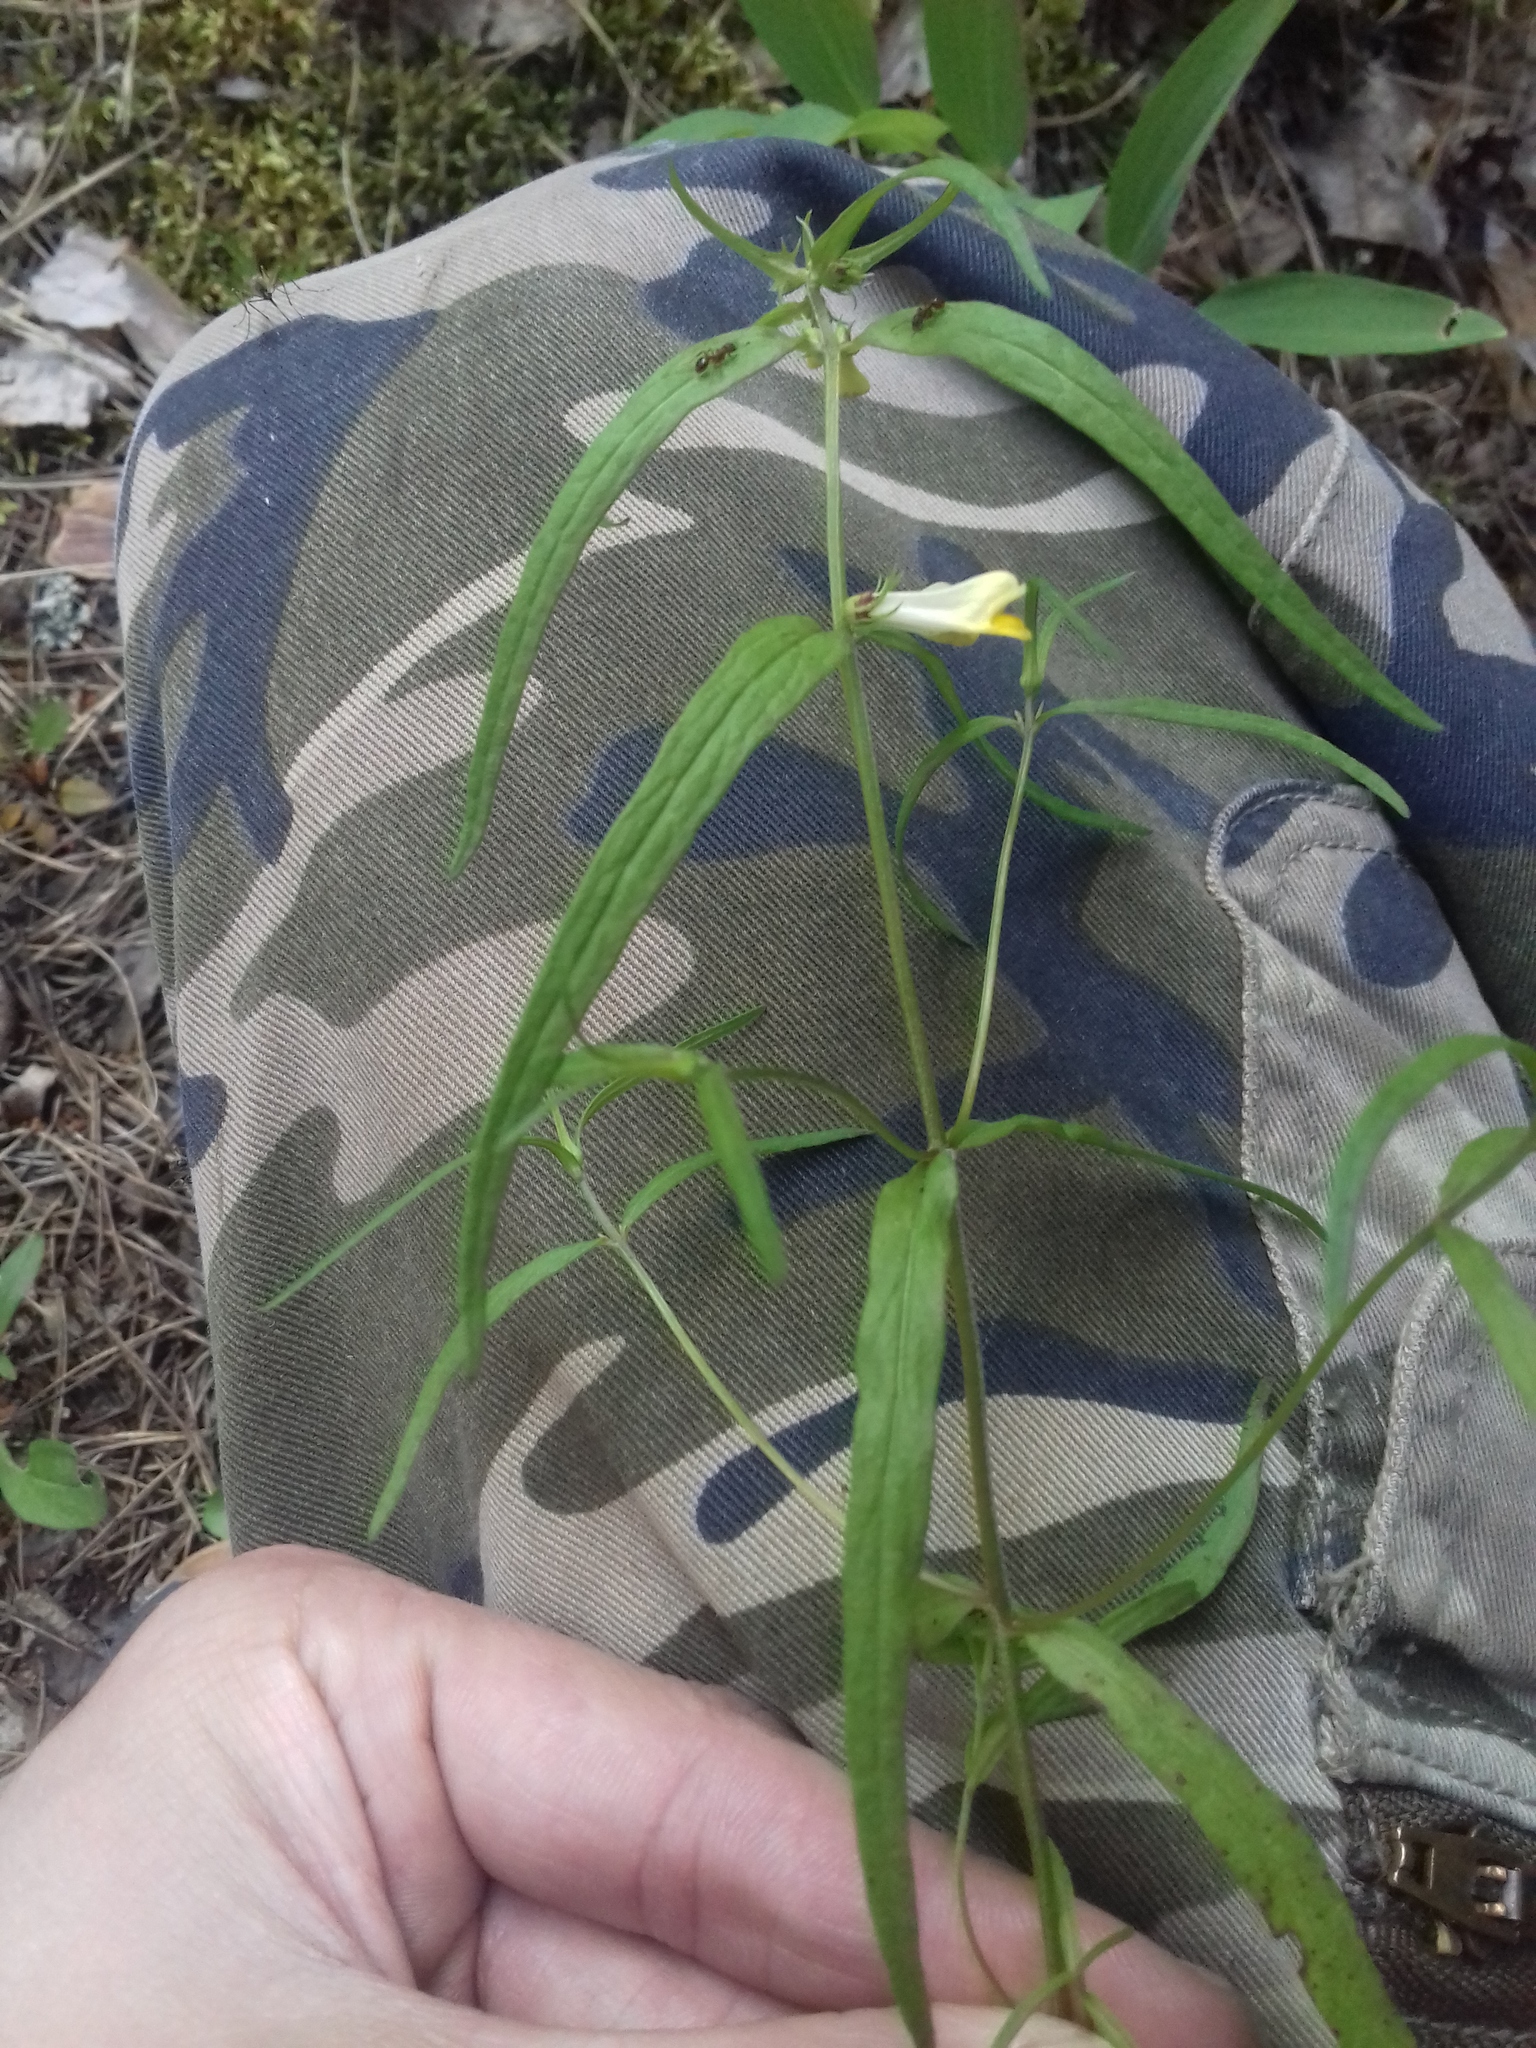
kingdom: Plantae
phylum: Tracheophyta
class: Magnoliopsida
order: Lamiales
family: Orobanchaceae
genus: Melampyrum
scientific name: Melampyrum pratense
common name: Common cow-wheat
